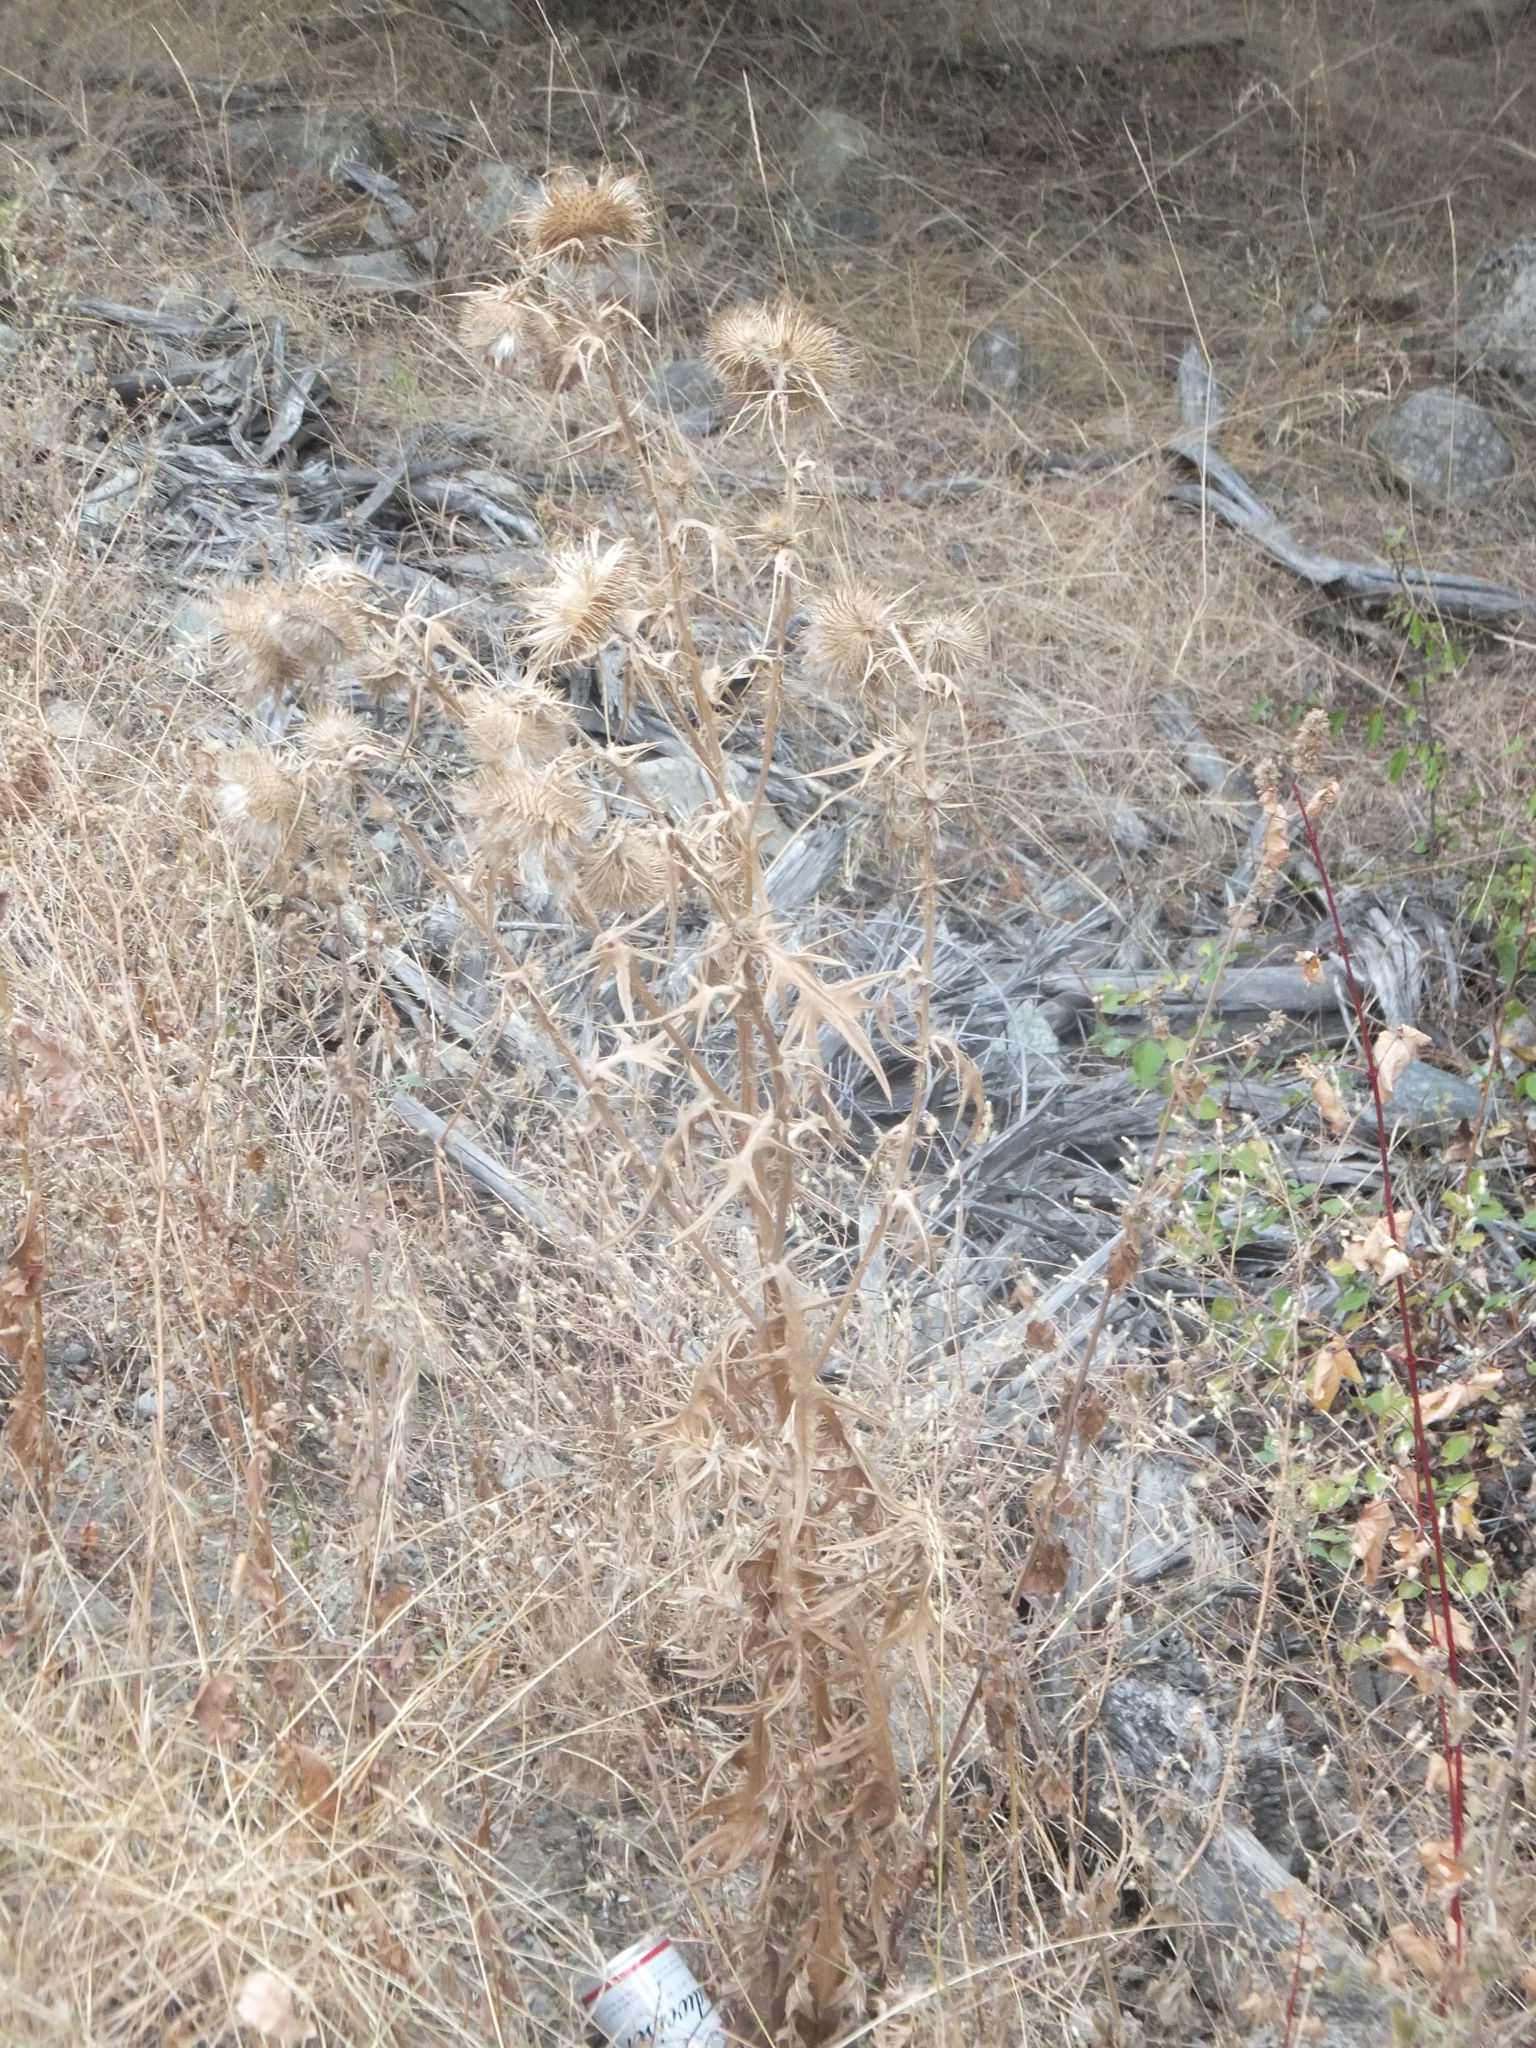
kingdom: Plantae
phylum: Tracheophyta
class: Magnoliopsida
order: Asterales
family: Asteraceae
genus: Cirsium
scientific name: Cirsium vulgare
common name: Bull thistle
